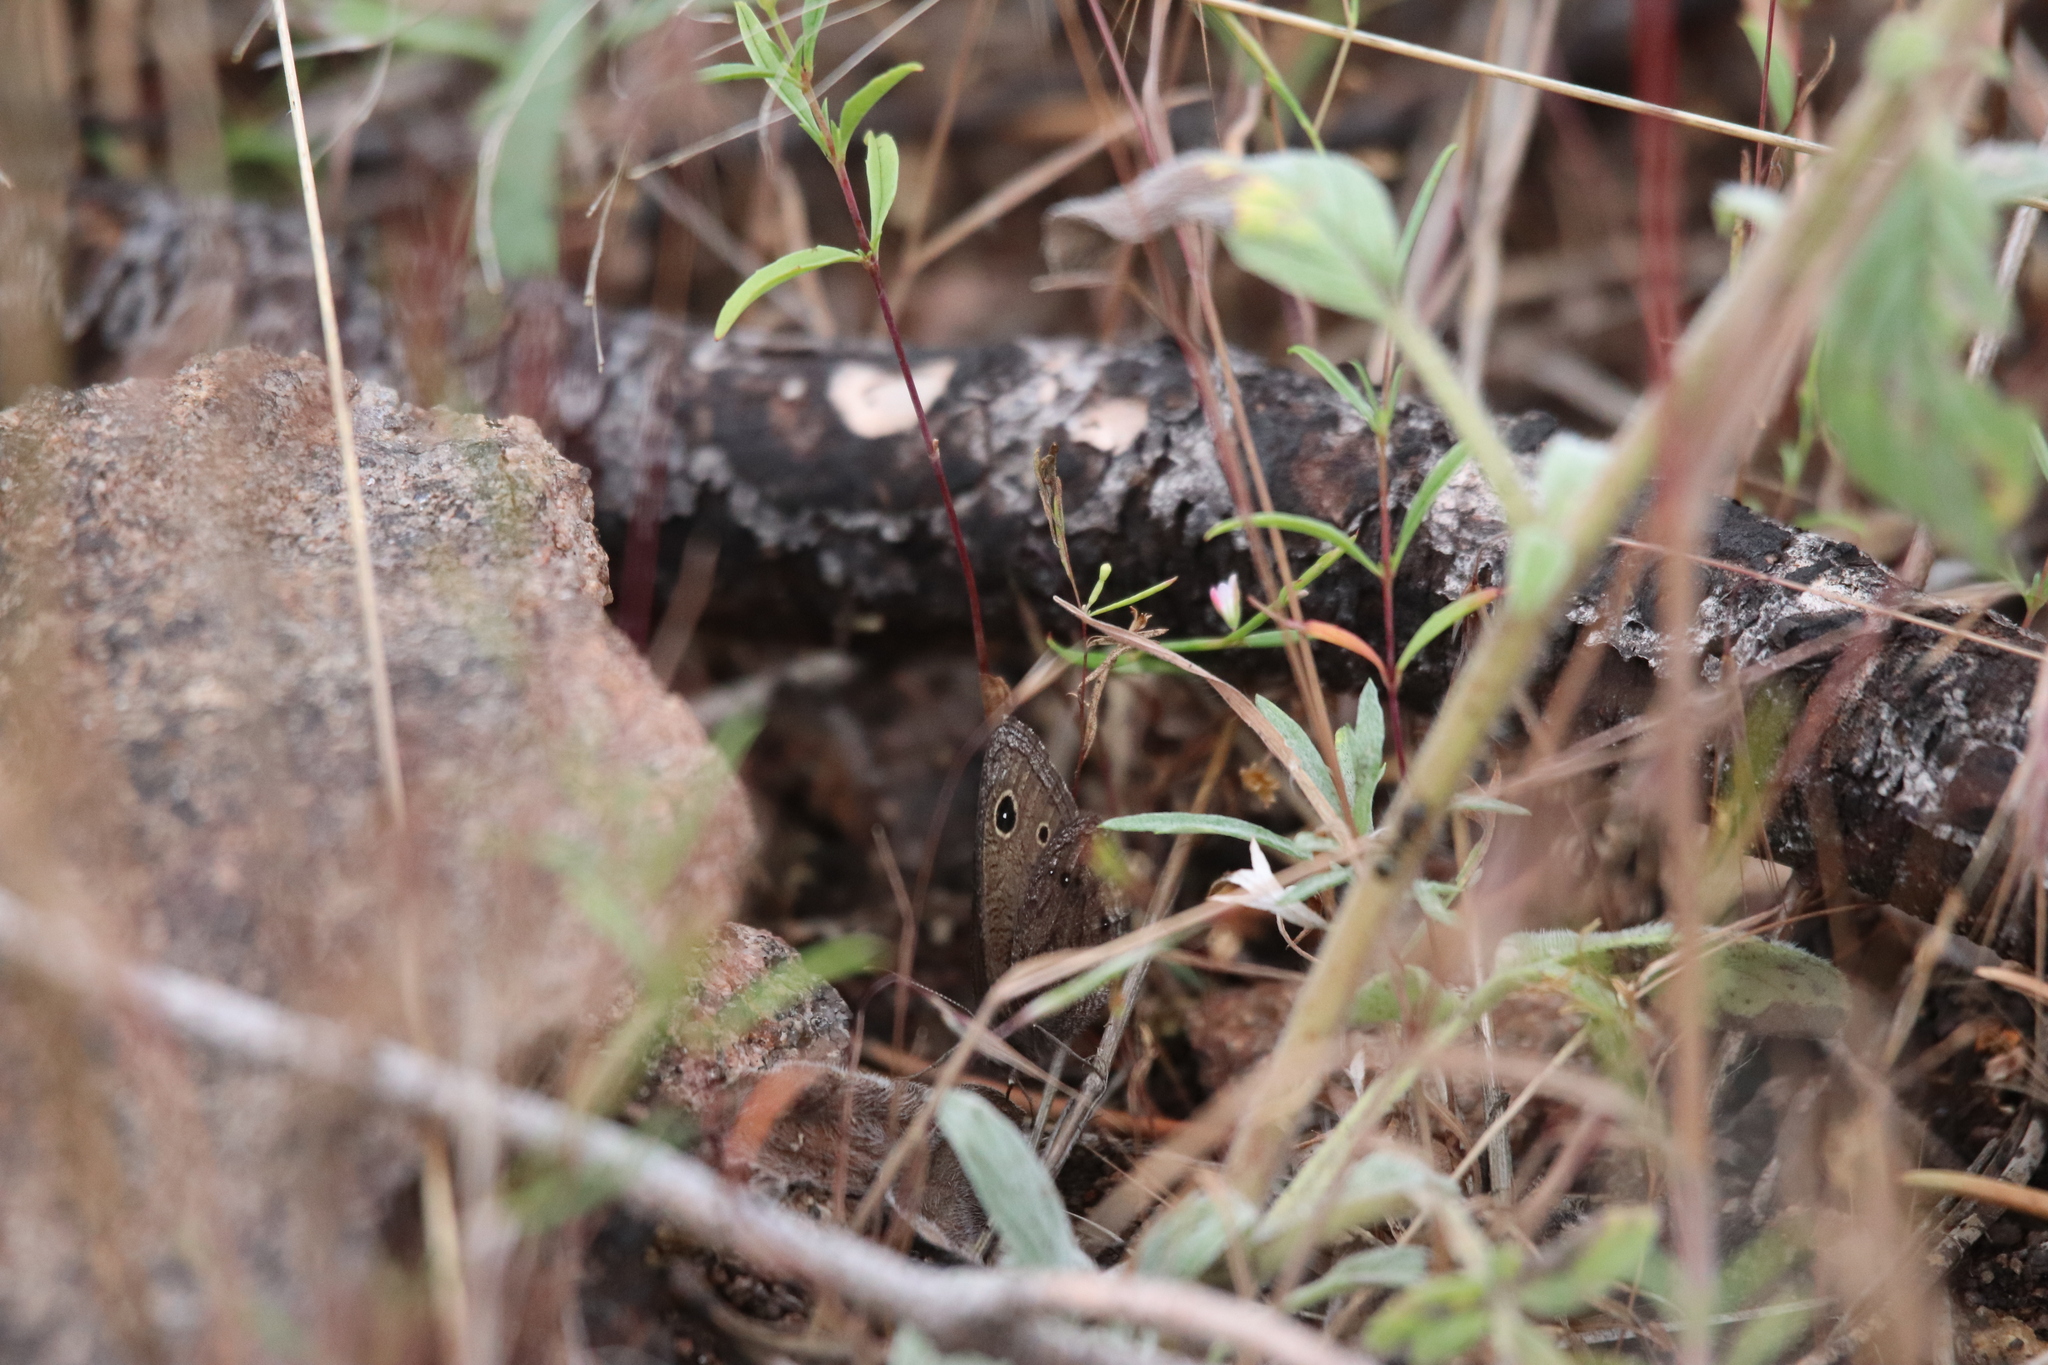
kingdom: Animalia
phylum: Arthropoda
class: Insecta
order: Lepidoptera
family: Nymphalidae
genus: Cercyonis
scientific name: Cercyonis oetus
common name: Small wood-nymph
